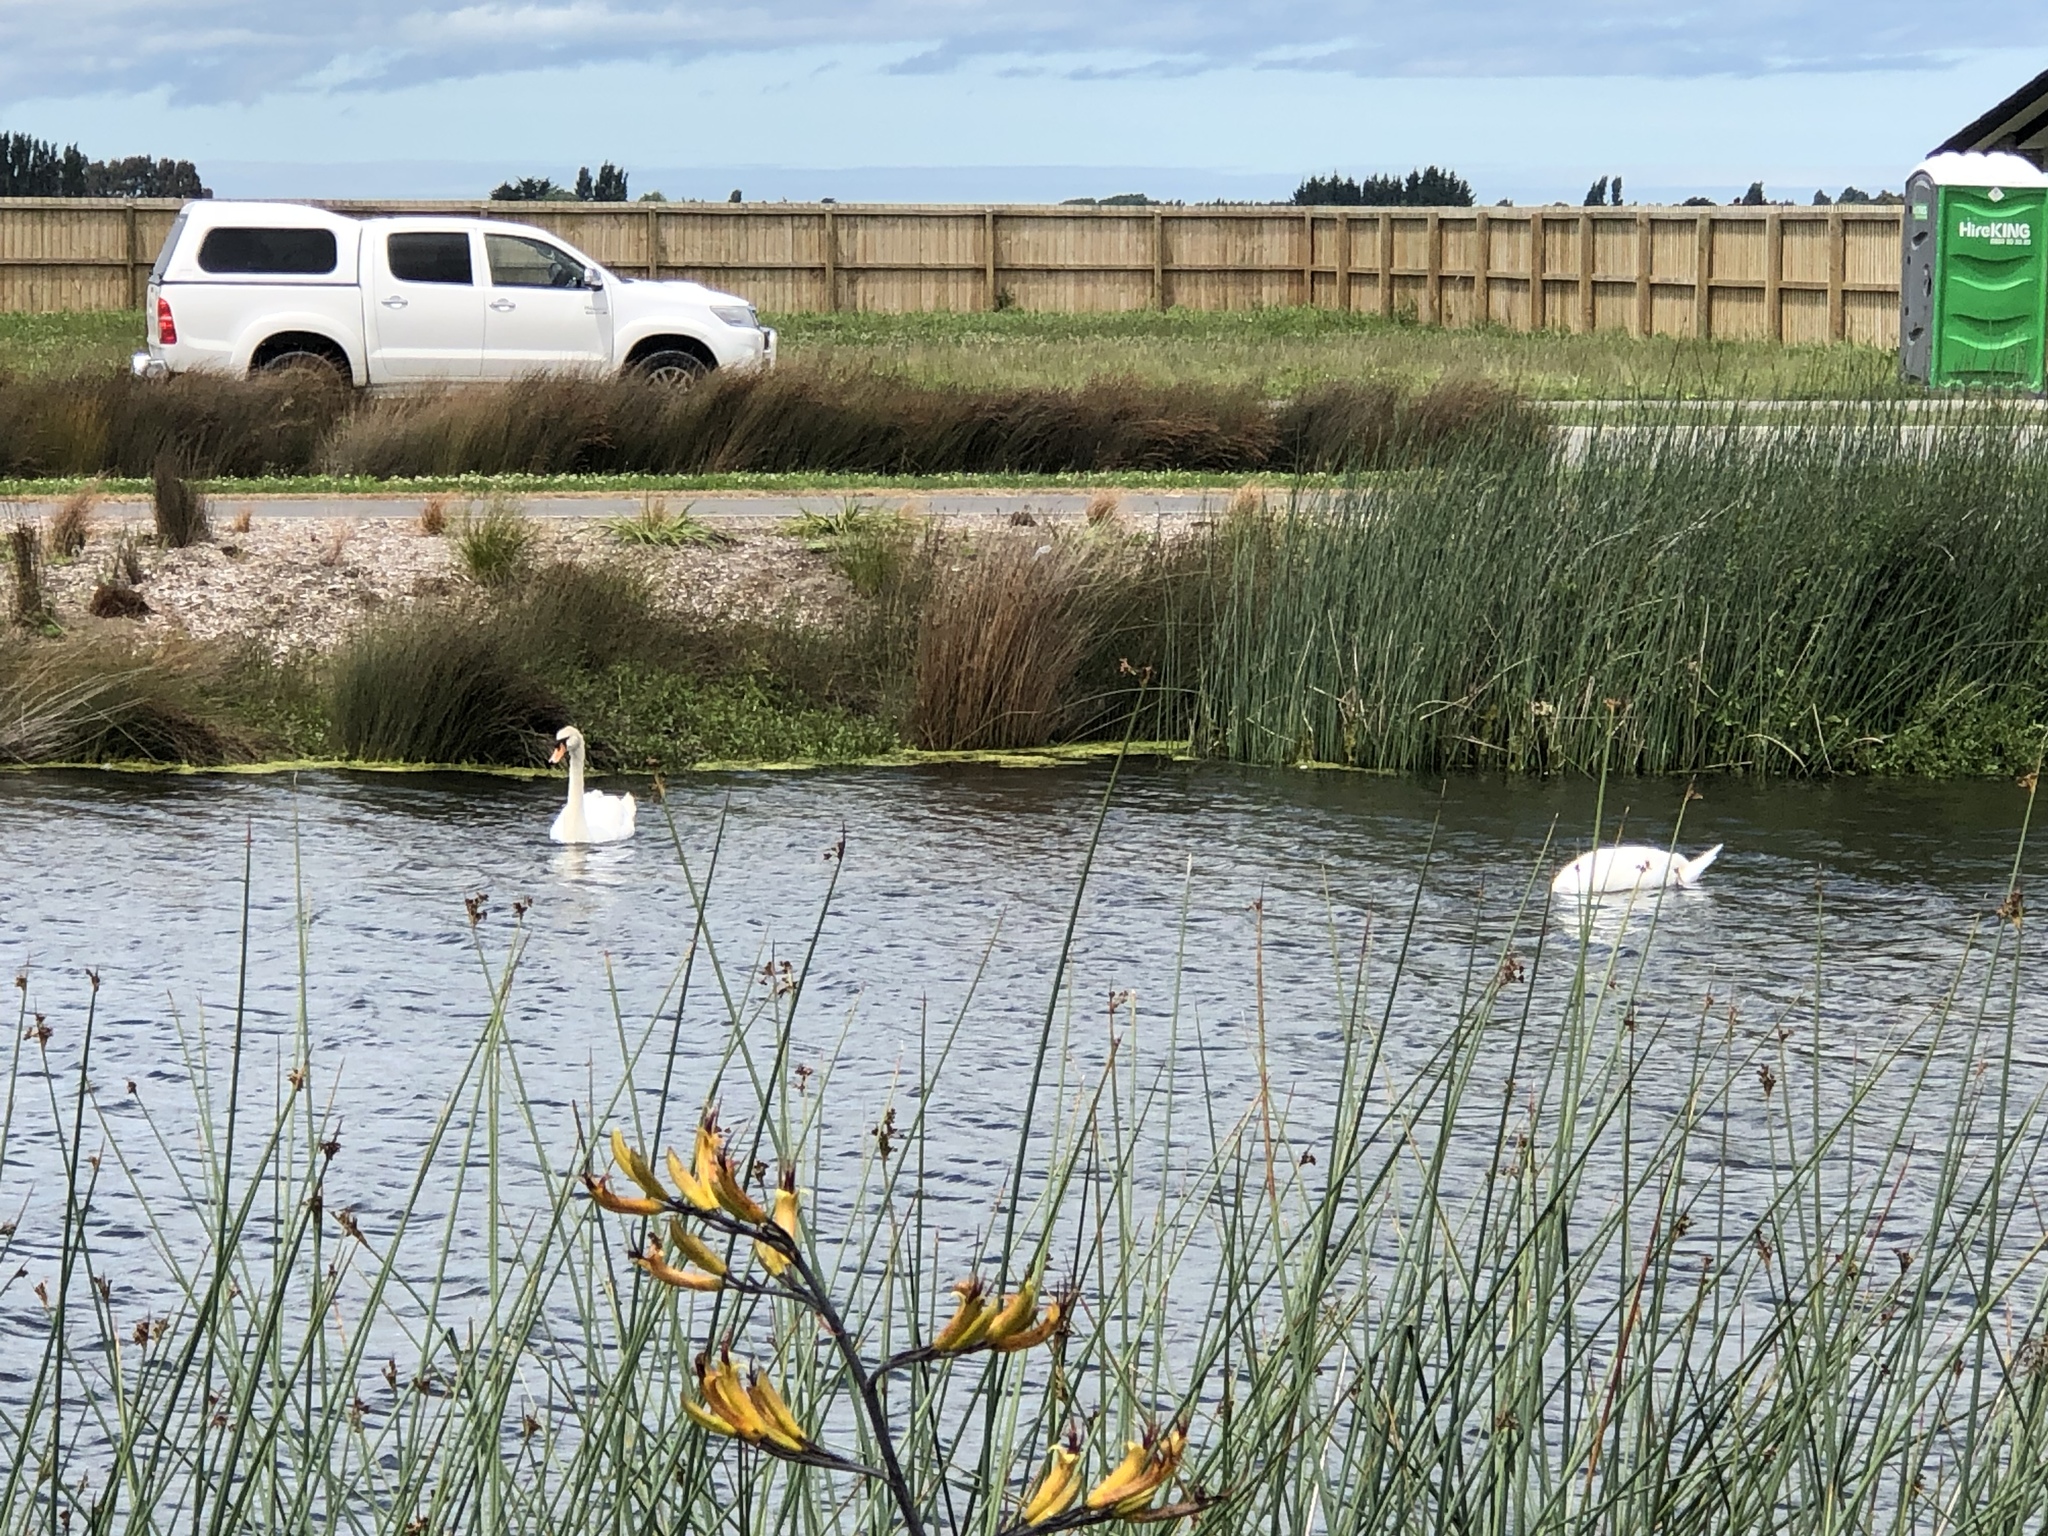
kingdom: Animalia
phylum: Chordata
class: Aves
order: Anseriformes
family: Anatidae
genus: Cygnus
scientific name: Cygnus olor
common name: Mute swan
